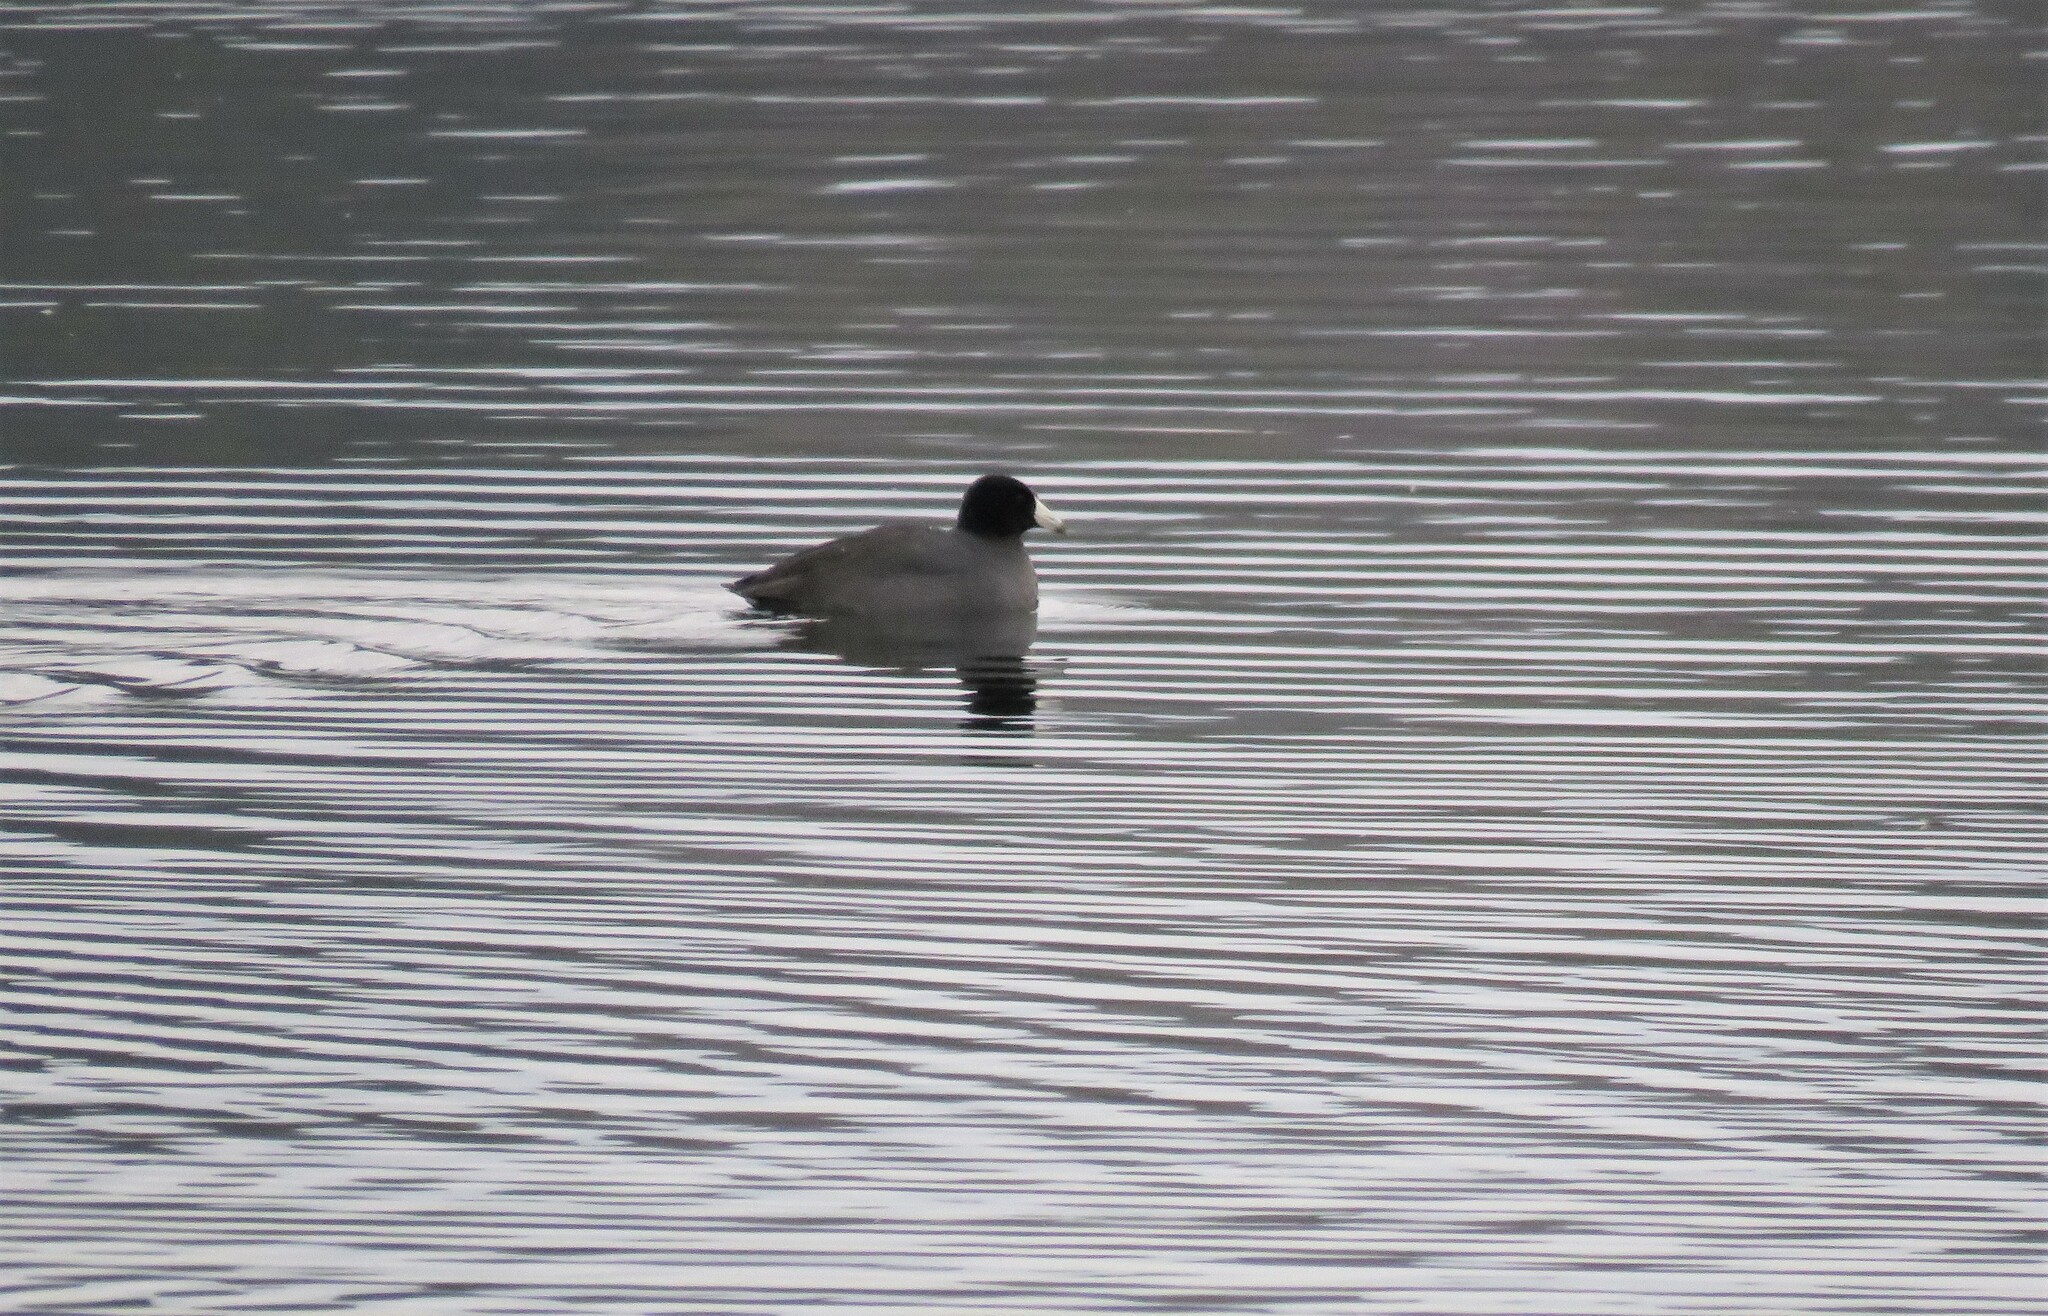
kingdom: Animalia
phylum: Chordata
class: Aves
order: Gruiformes
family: Rallidae
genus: Fulica
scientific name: Fulica americana
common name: American coot
